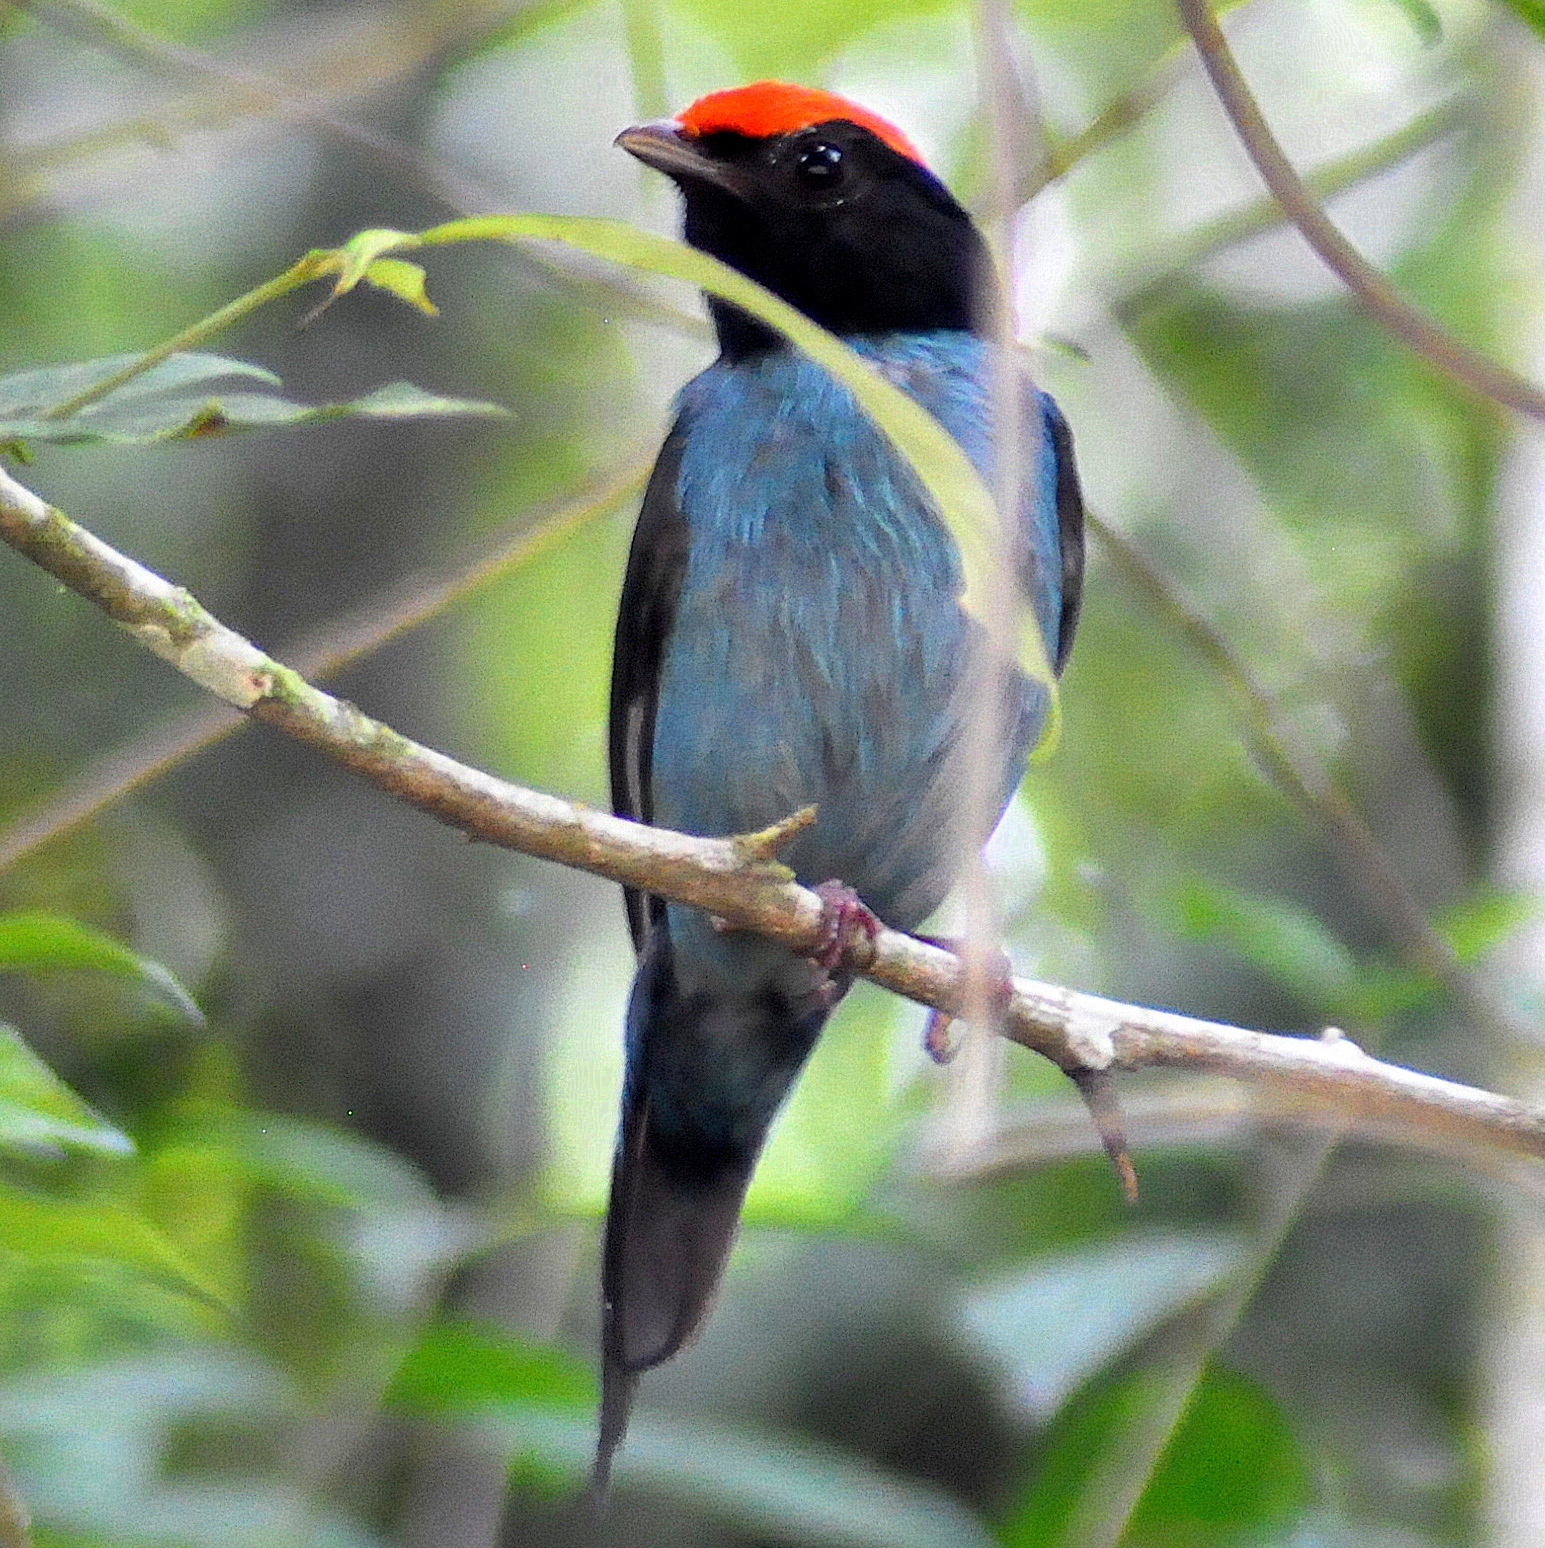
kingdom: Animalia
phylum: Chordata
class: Aves
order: Passeriformes
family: Pipridae
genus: Chiroxiphia
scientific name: Chiroxiphia caudata
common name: Blue manakin
